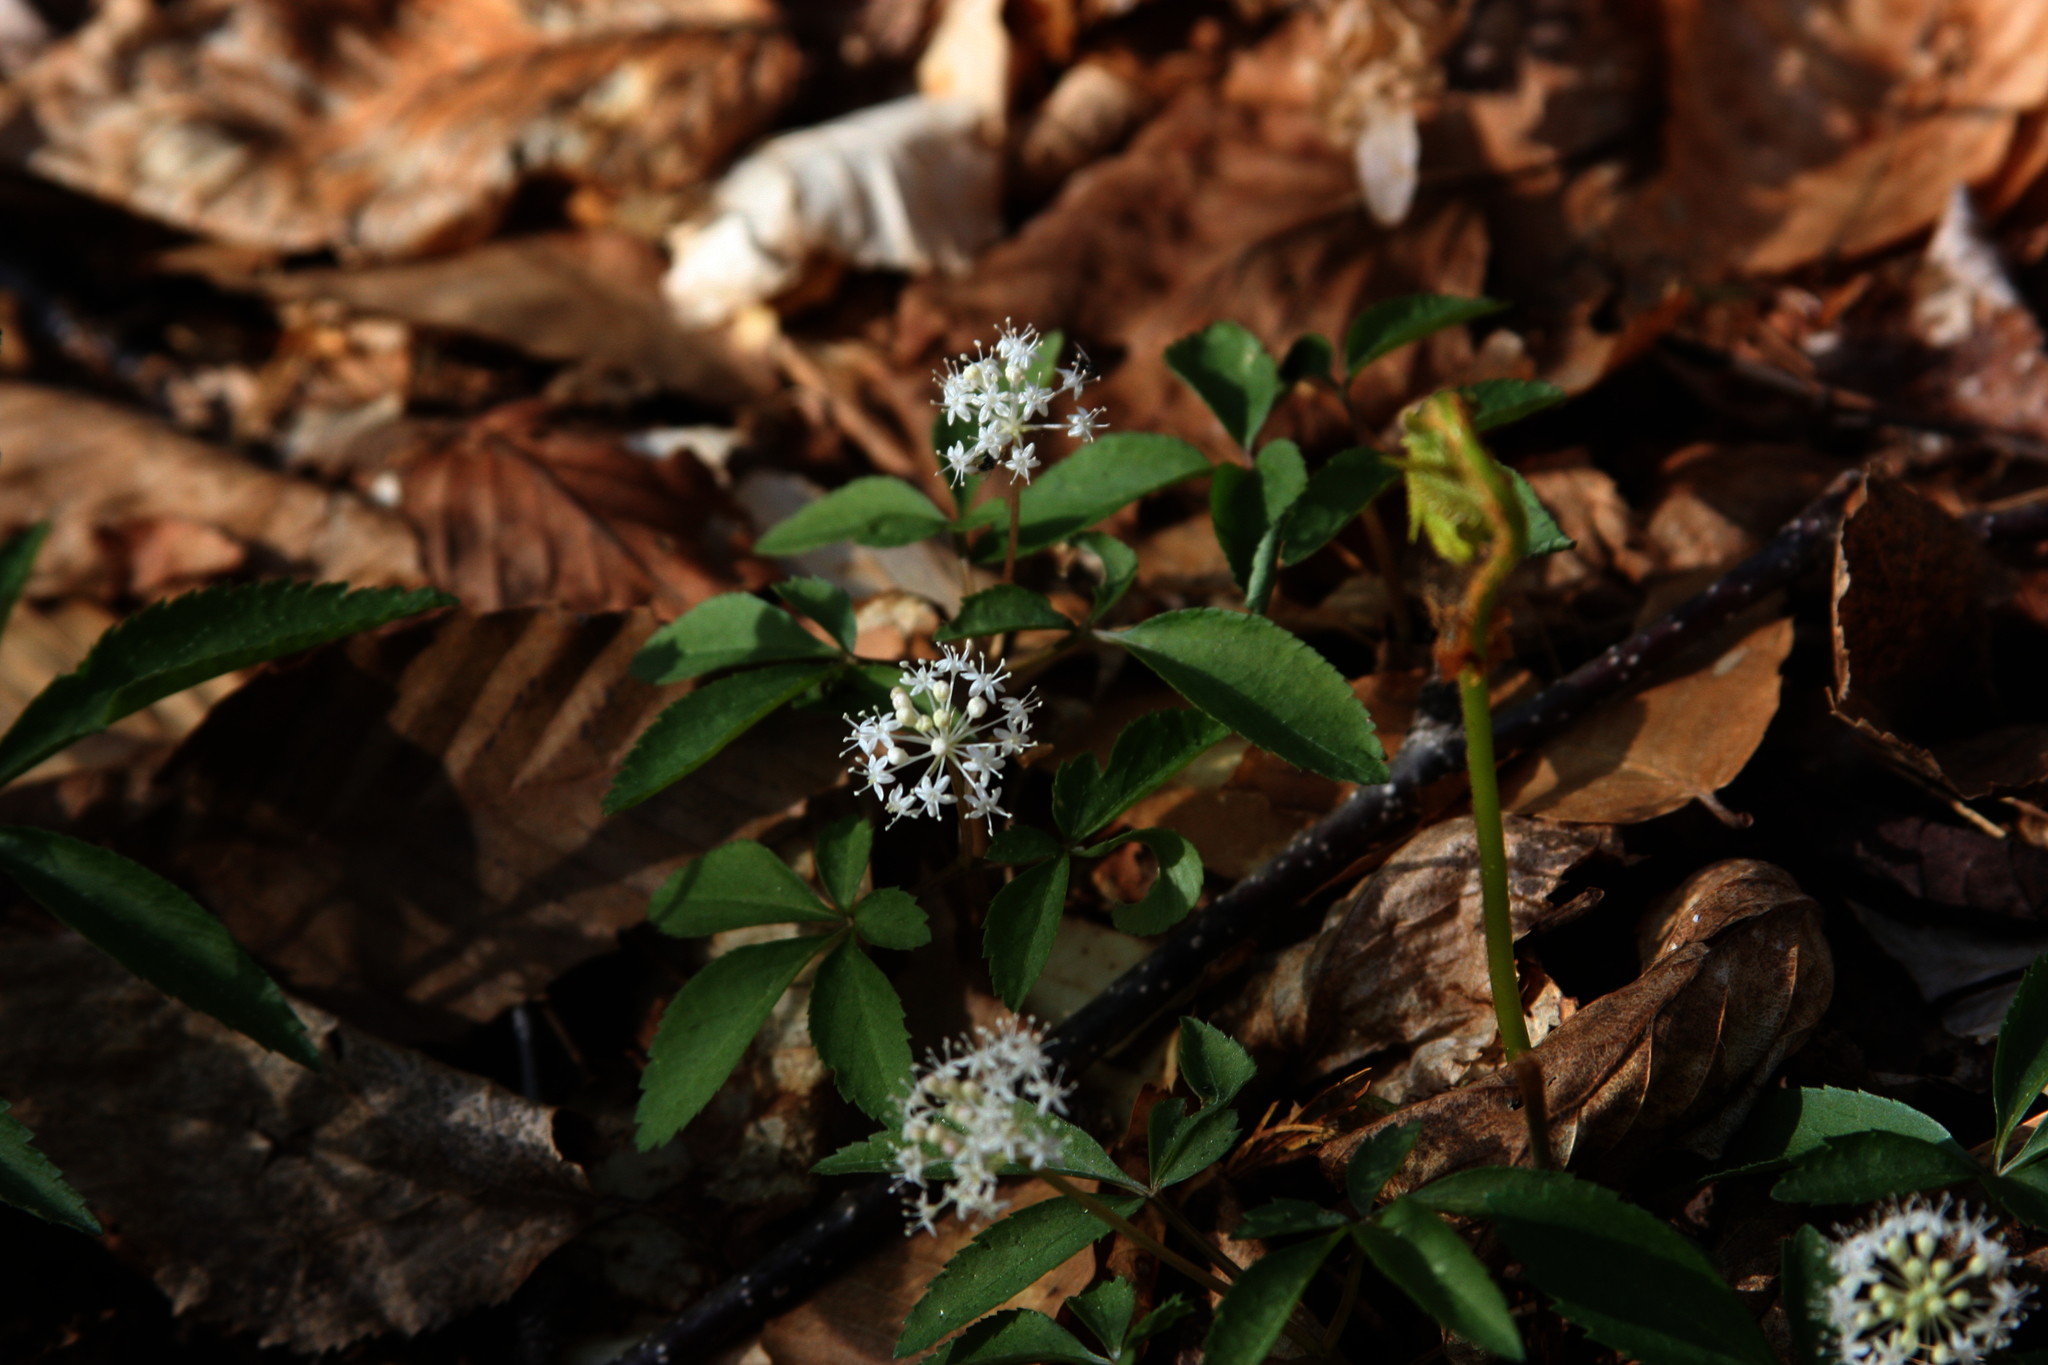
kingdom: Plantae
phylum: Tracheophyta
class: Magnoliopsida
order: Apiales
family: Araliaceae
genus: Panax
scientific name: Panax trifolius
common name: Dwarf ginseng
